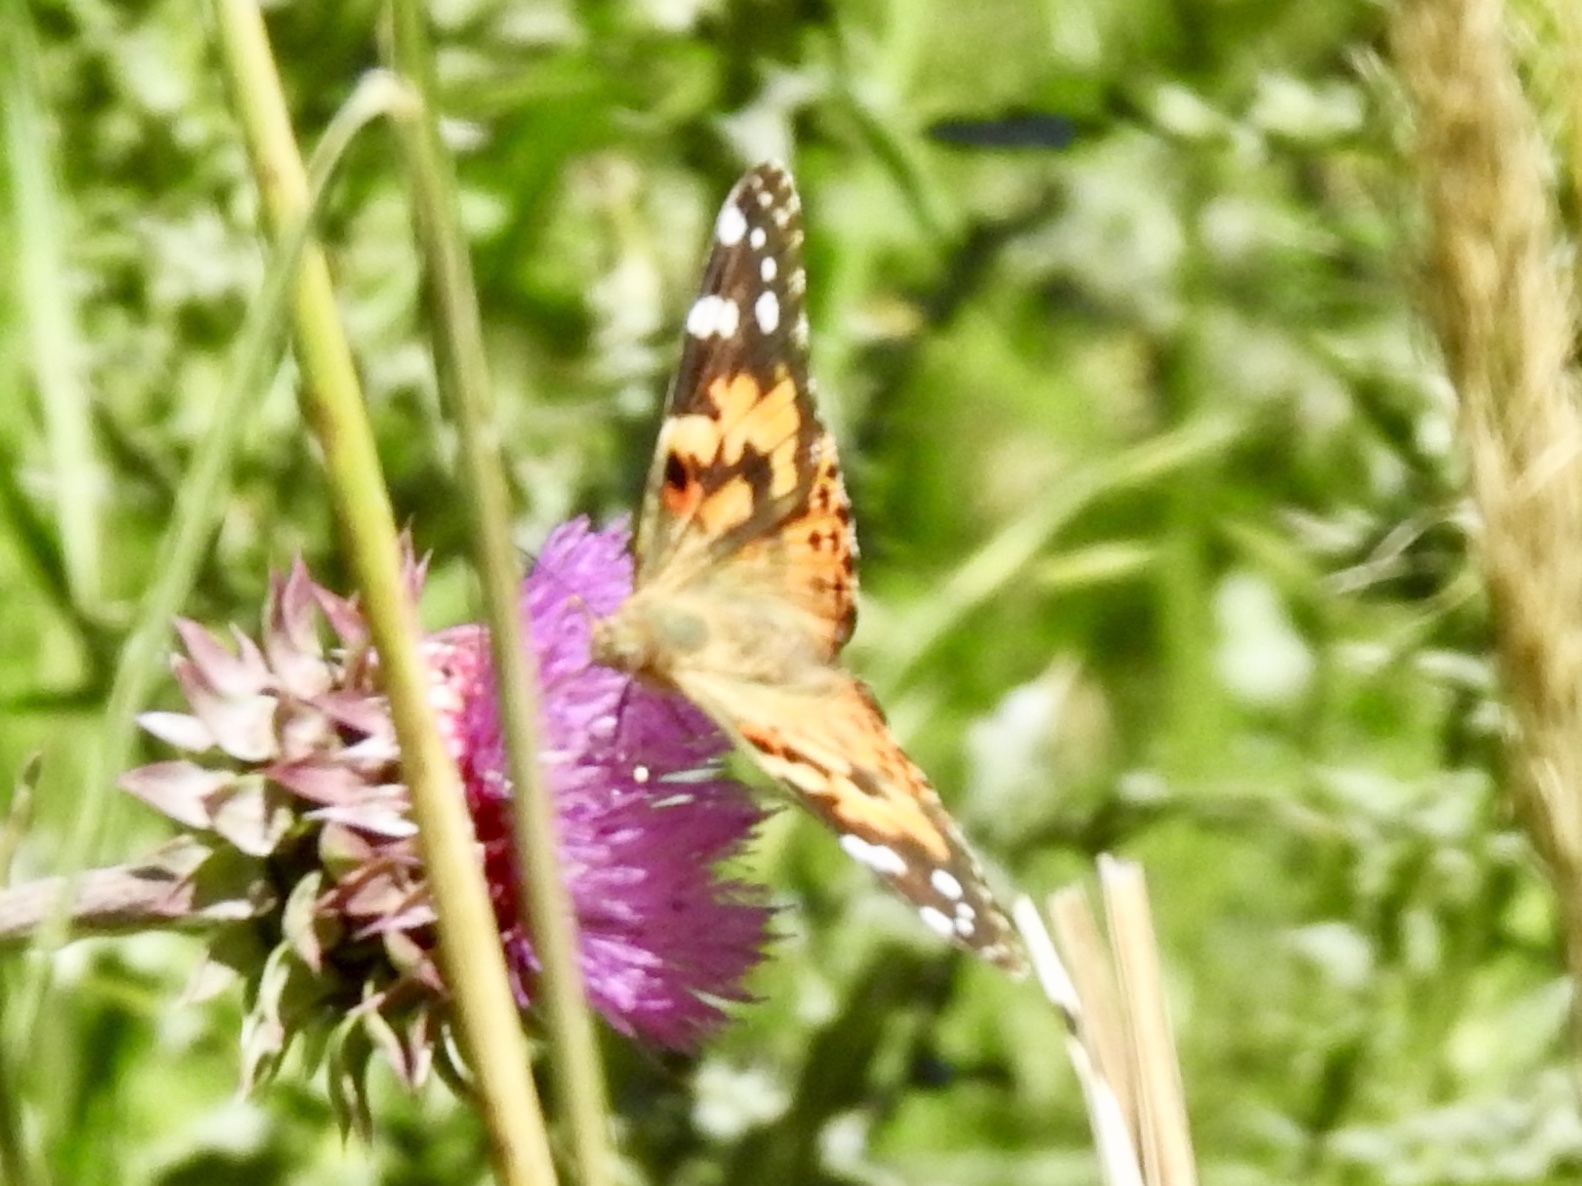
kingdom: Animalia
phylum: Arthropoda
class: Insecta
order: Lepidoptera
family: Nymphalidae
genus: Vanessa
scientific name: Vanessa cardui
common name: Painted lady
